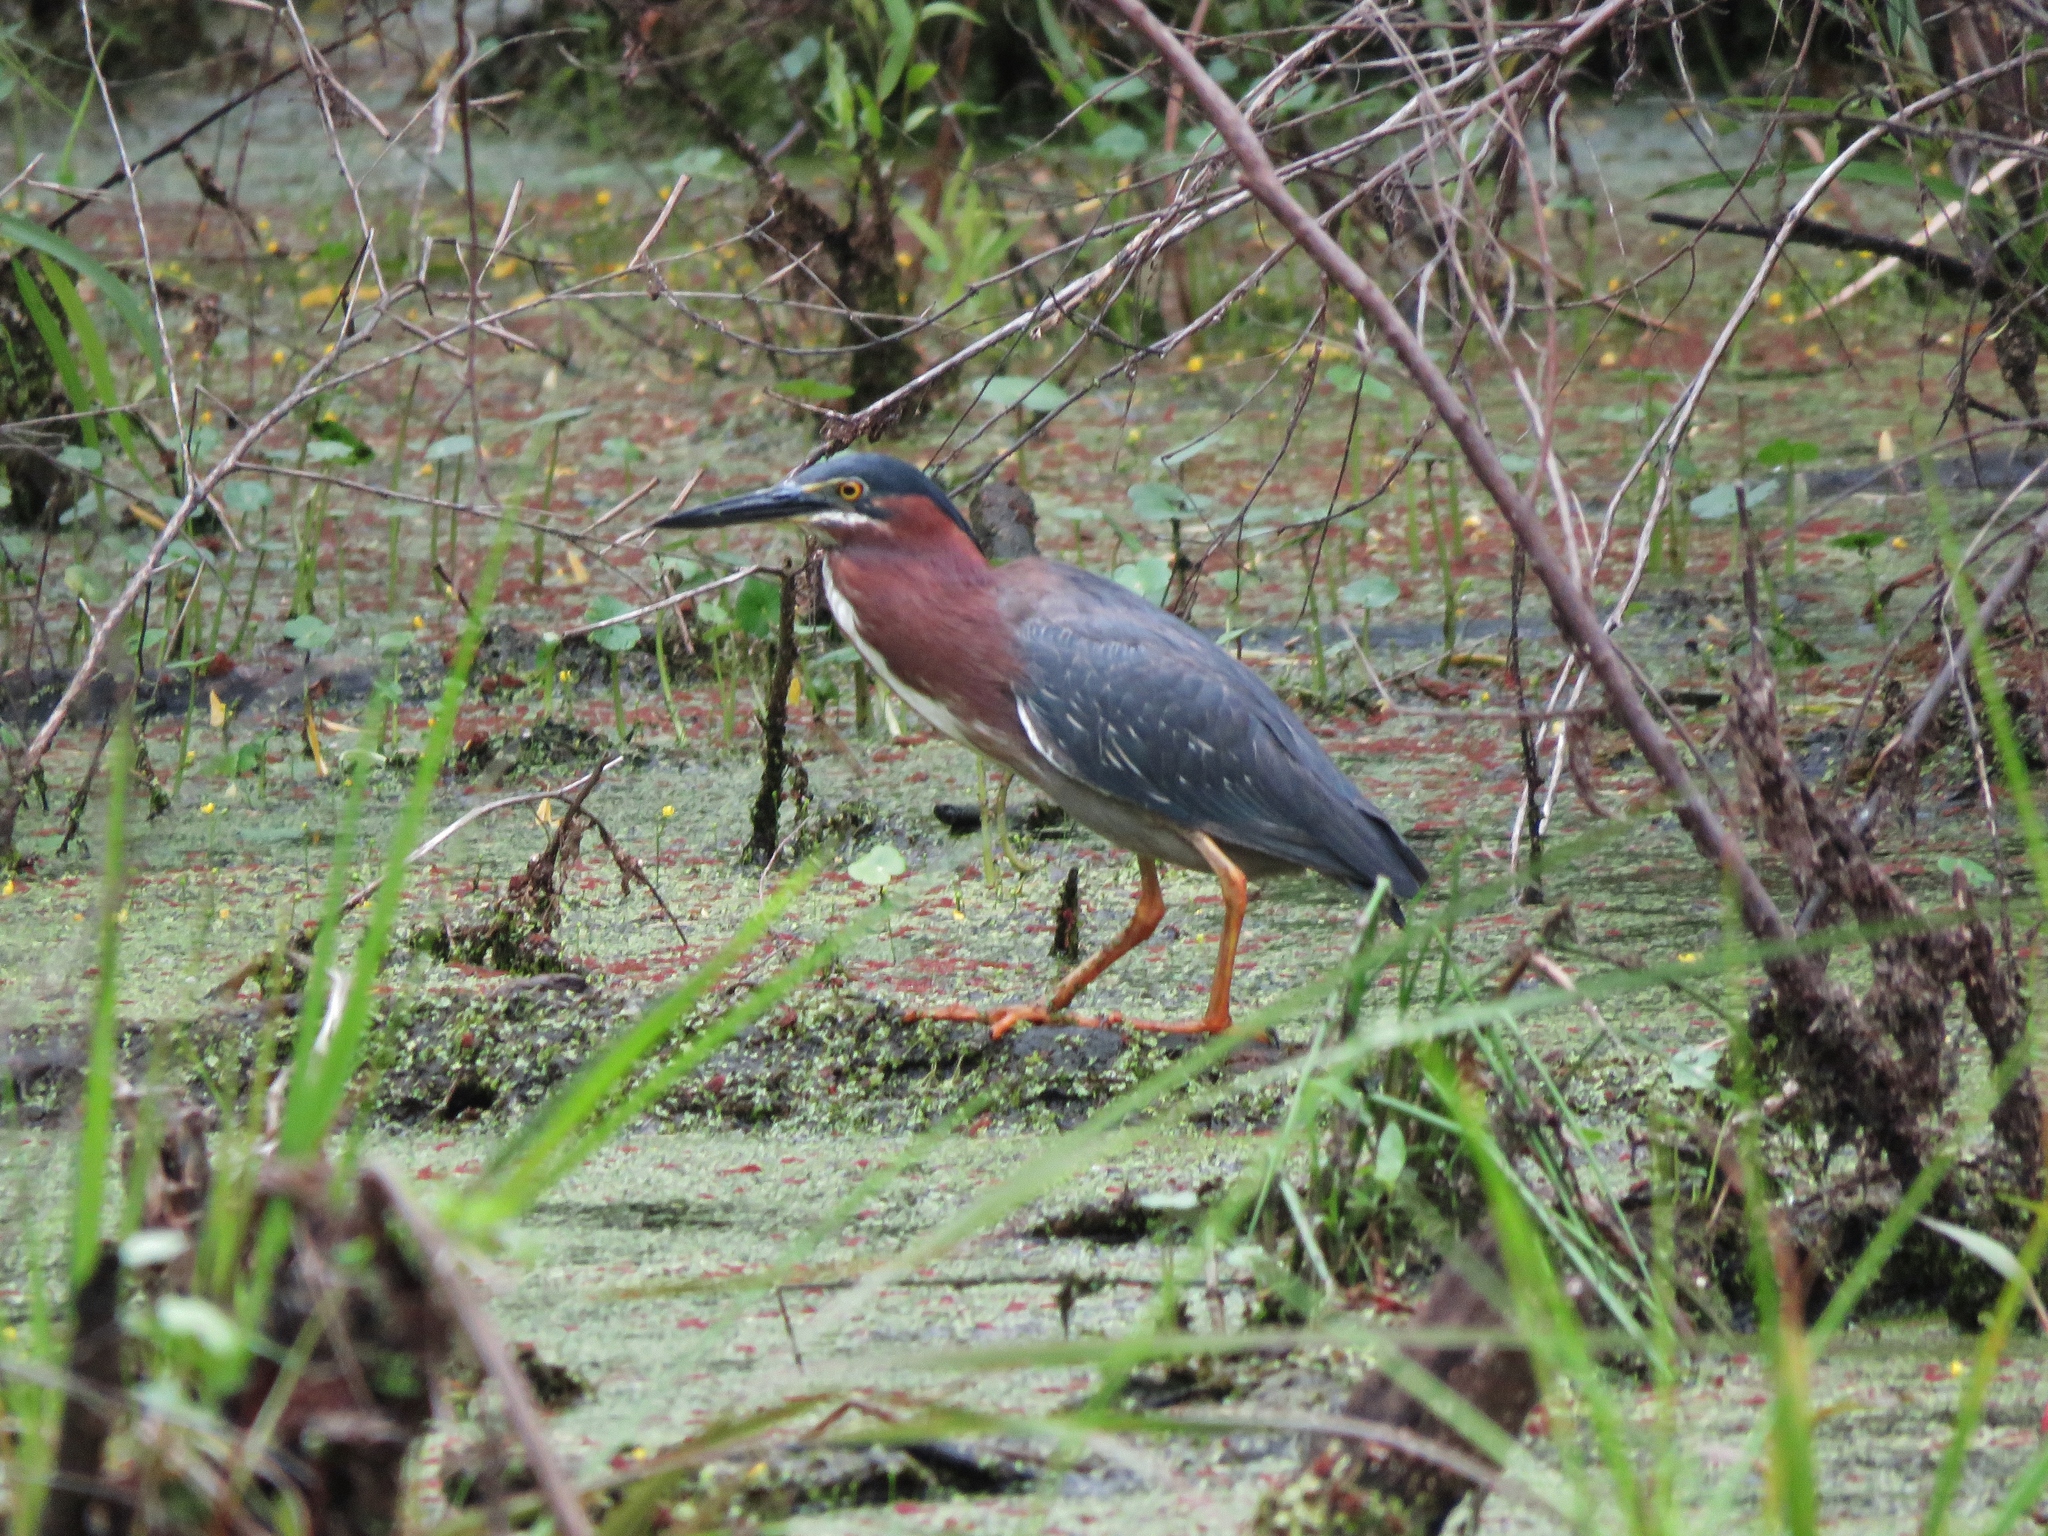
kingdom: Animalia
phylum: Chordata
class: Aves
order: Pelecaniformes
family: Ardeidae
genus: Butorides
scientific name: Butorides virescens
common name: Green heron
